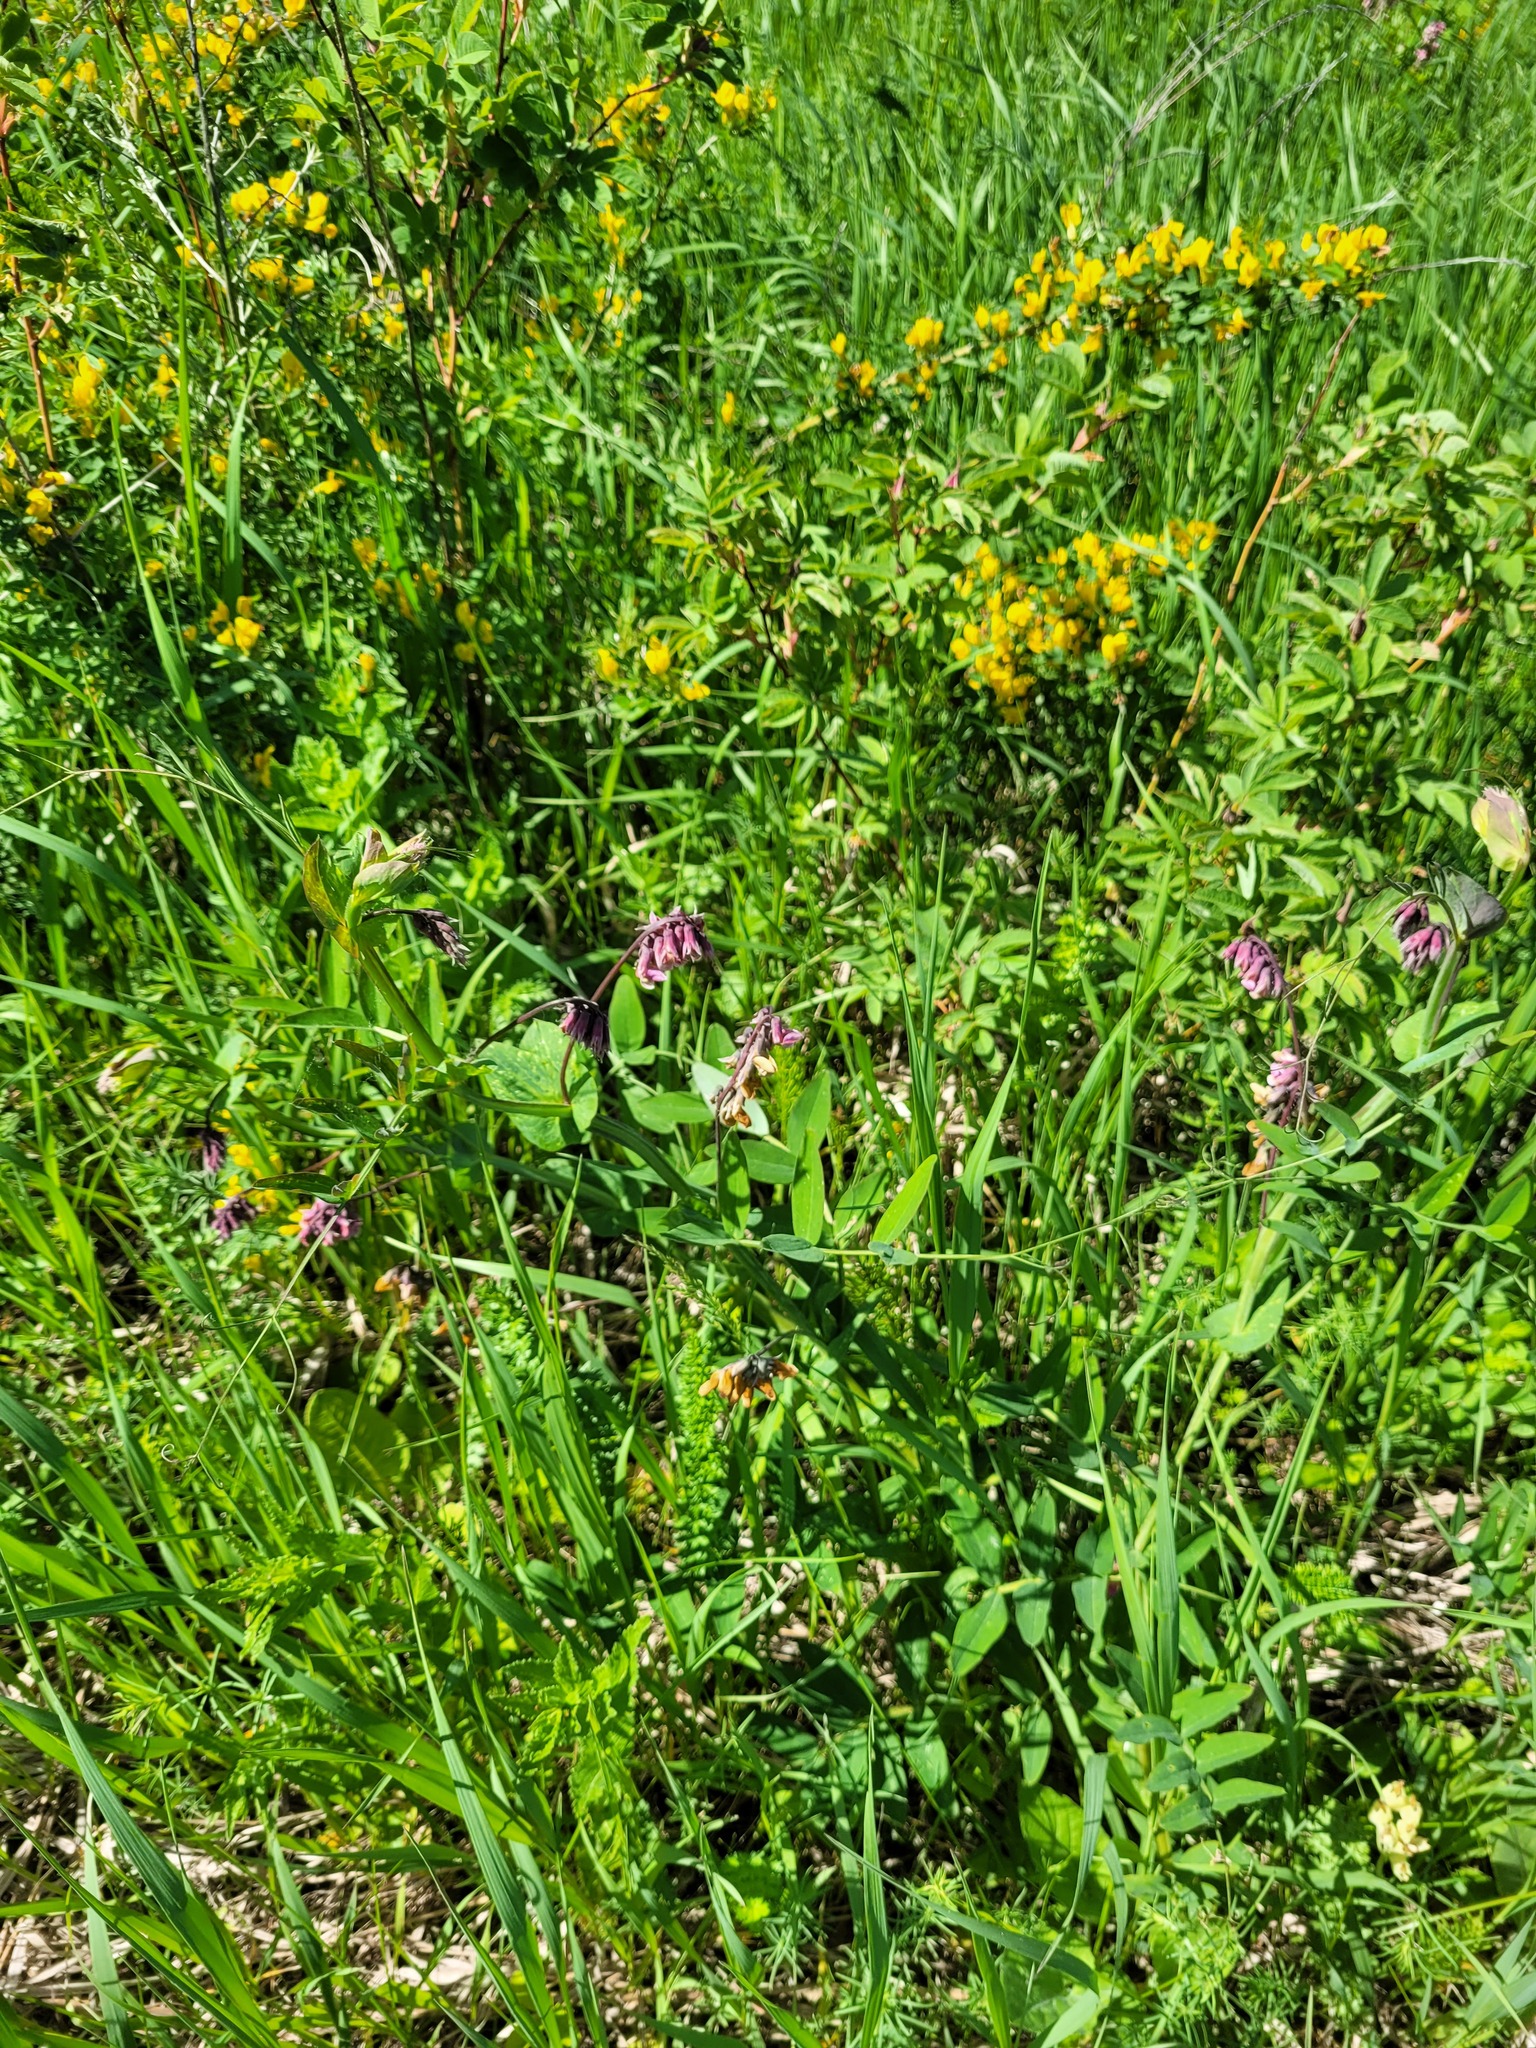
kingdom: Plantae
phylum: Tracheophyta
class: Magnoliopsida
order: Fabales
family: Fabaceae
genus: Lathyrus
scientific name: Lathyrus pisiformis
